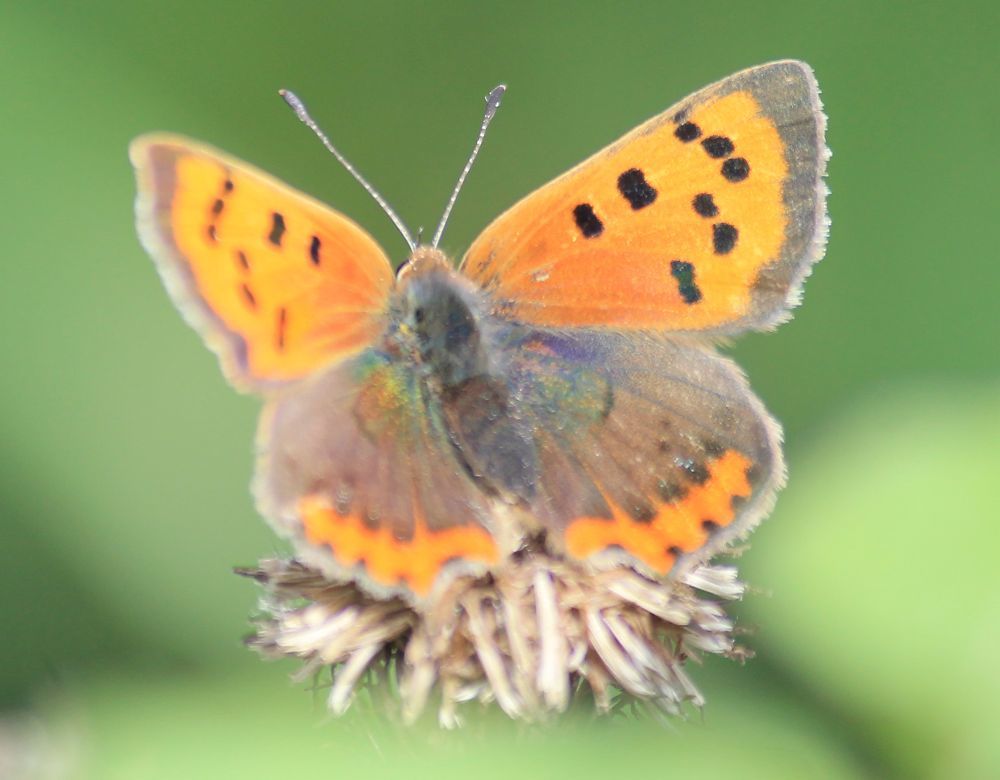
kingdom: Animalia
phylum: Arthropoda
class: Insecta
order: Lepidoptera
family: Lycaenidae
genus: Lycaena
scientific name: Lycaena phlaeas
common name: Small copper
